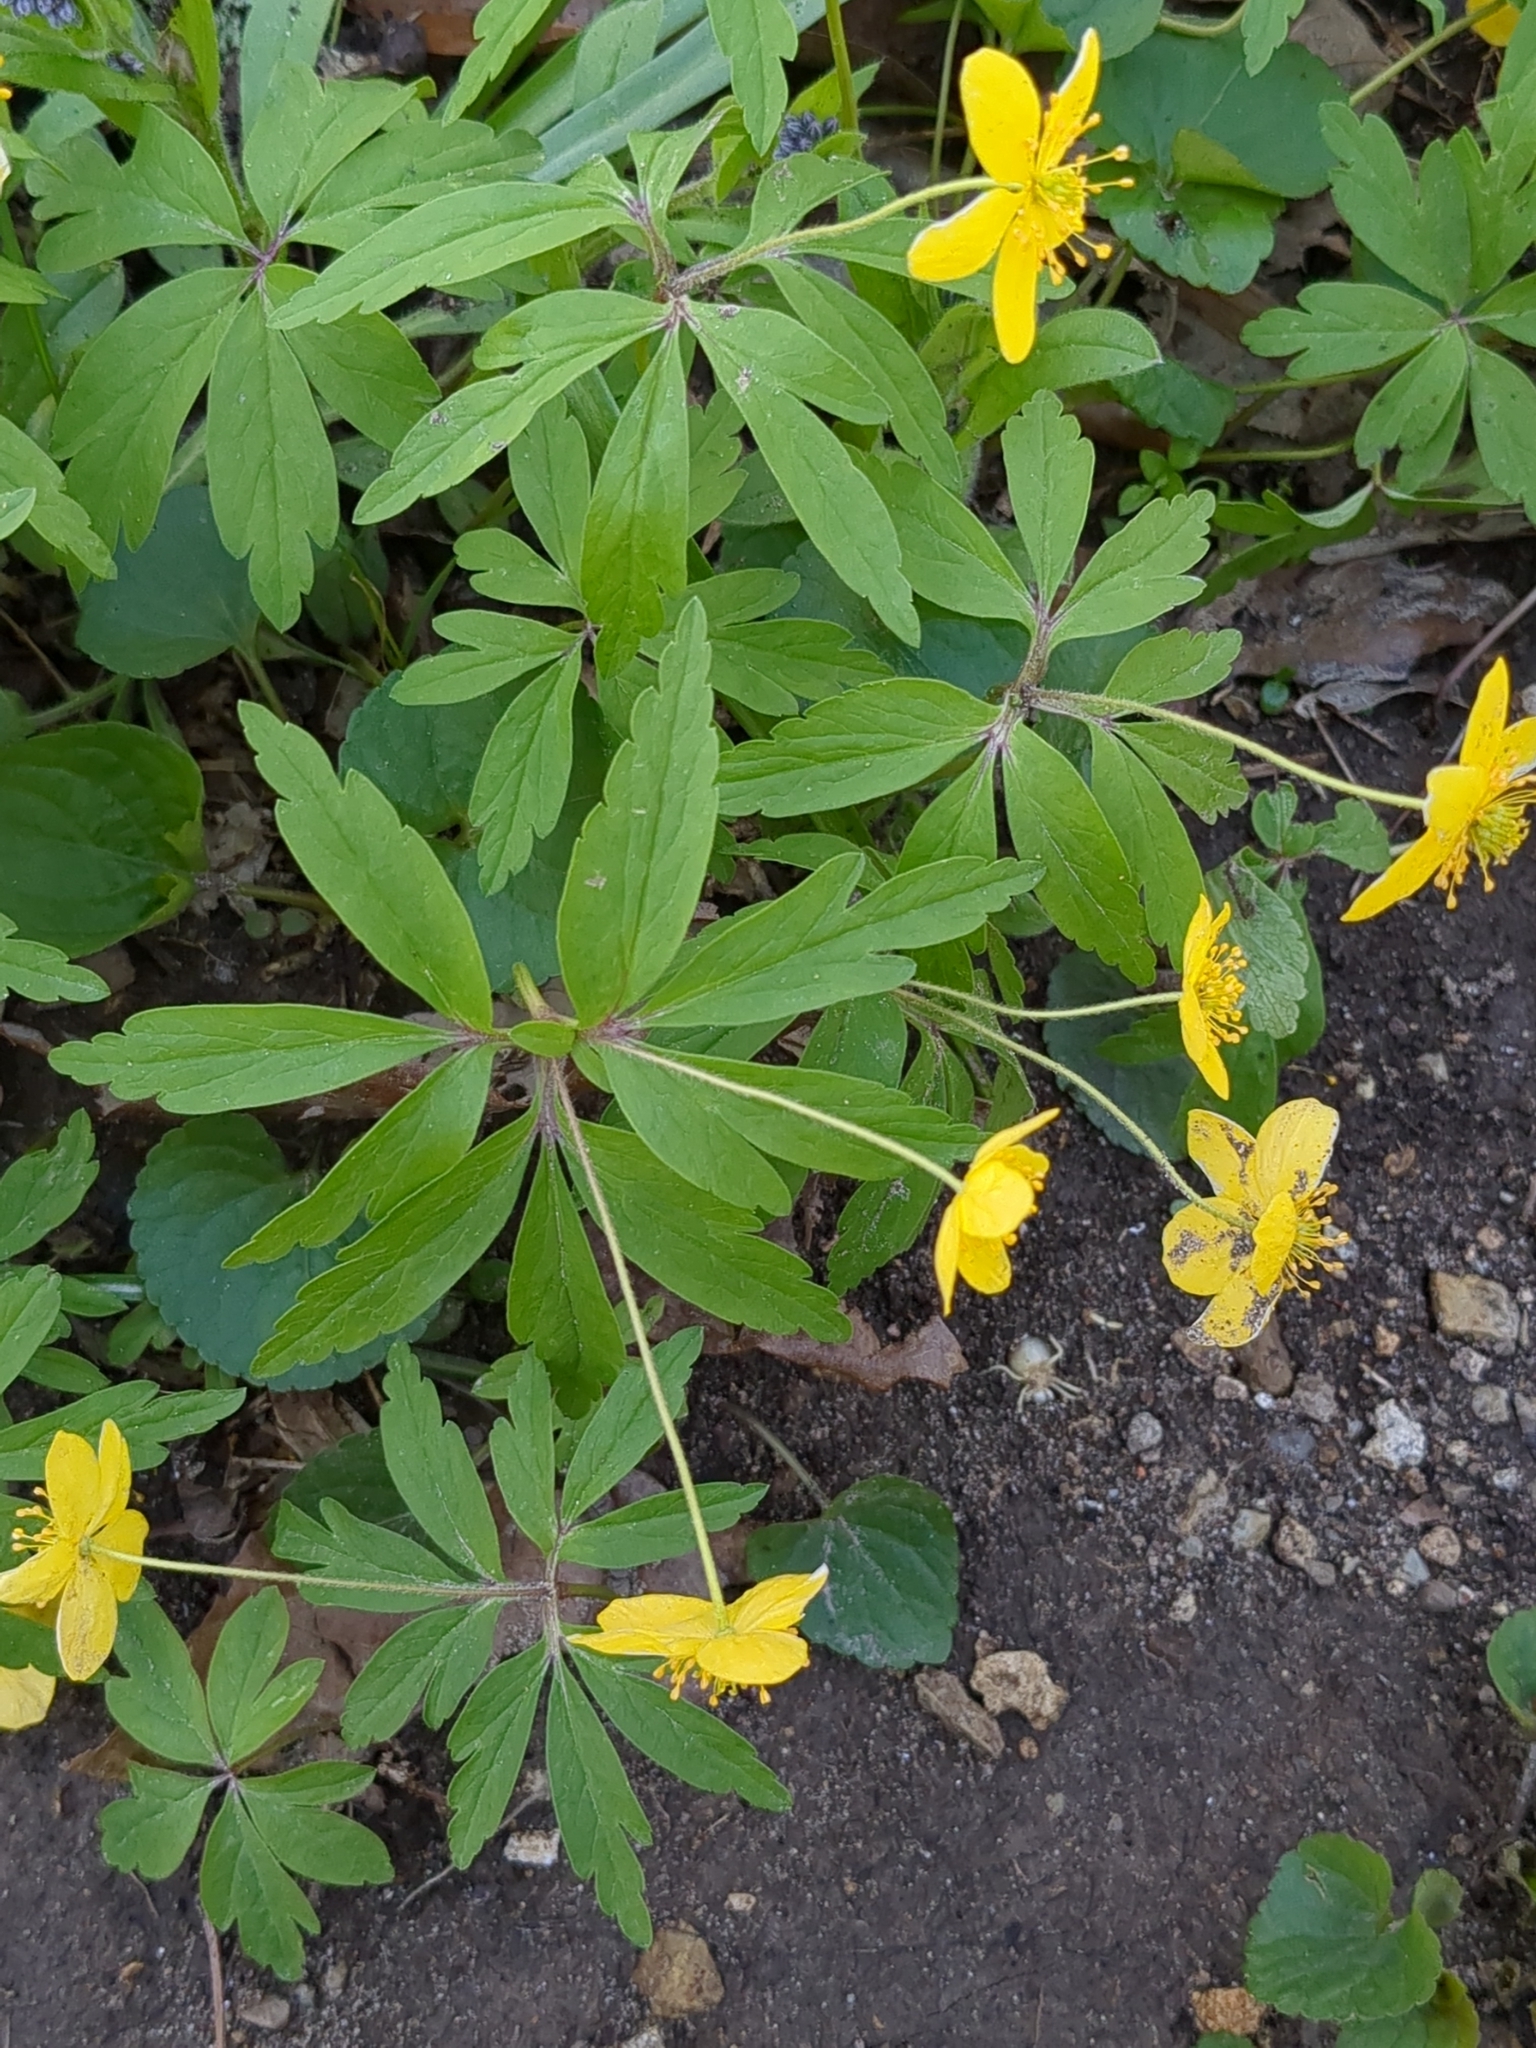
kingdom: Plantae
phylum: Tracheophyta
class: Magnoliopsida
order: Ranunculales
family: Ranunculaceae
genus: Anemone
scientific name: Anemone ranunculoides
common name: Yellow anemone
